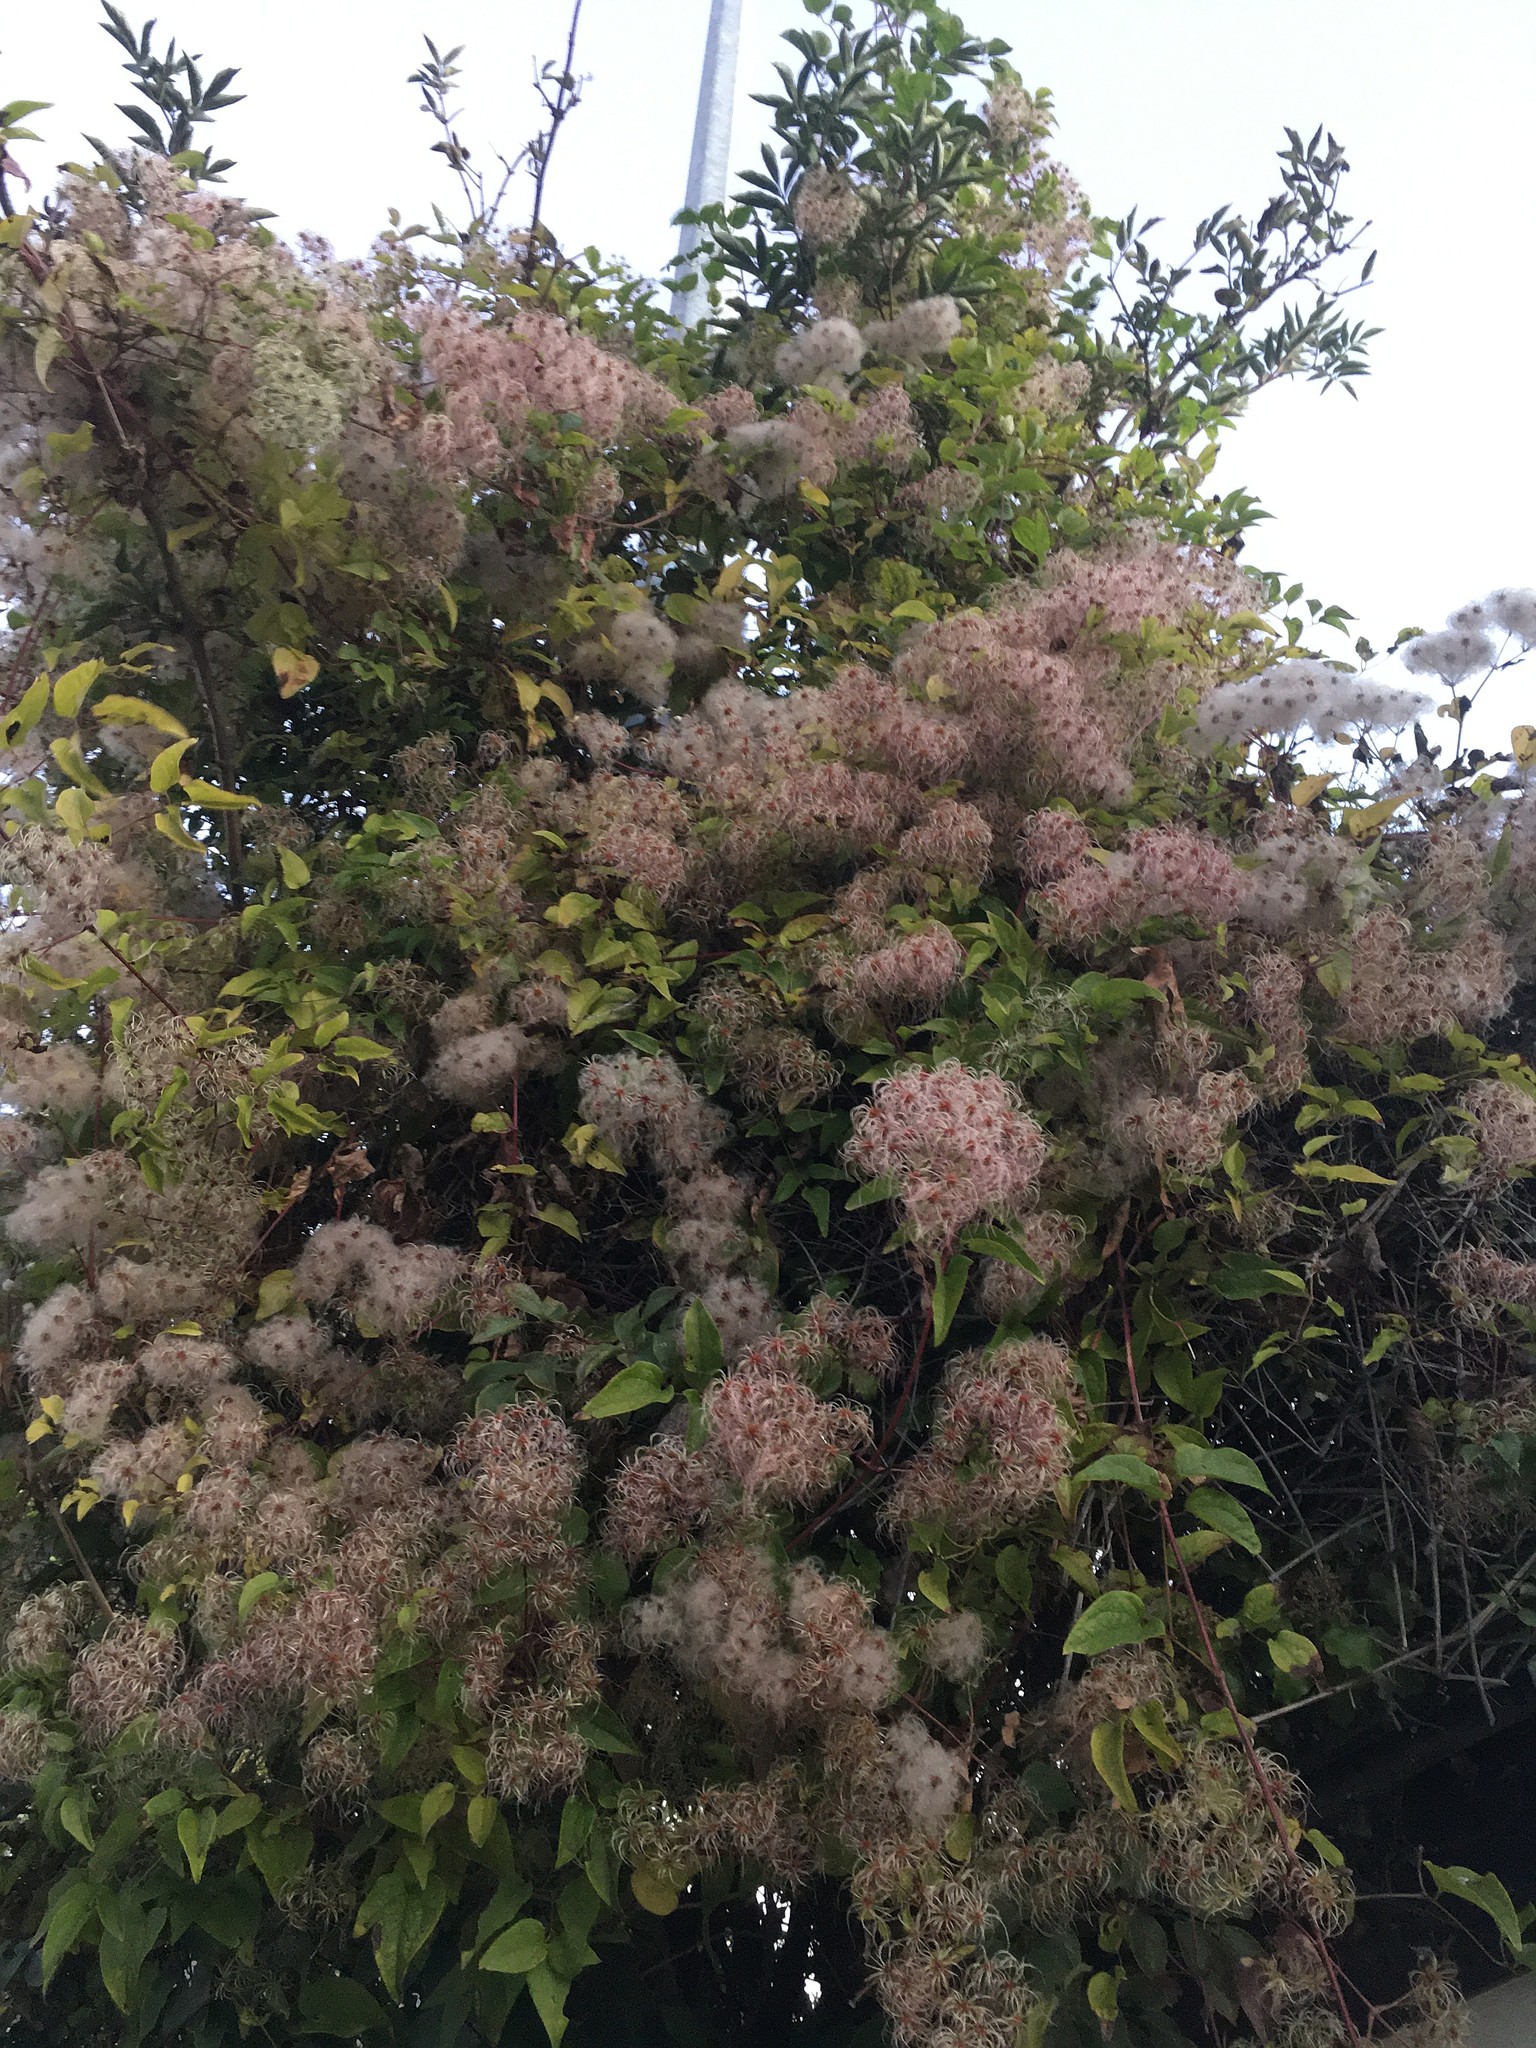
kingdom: Plantae
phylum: Tracheophyta
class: Magnoliopsida
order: Ranunculales
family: Ranunculaceae
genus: Clematis
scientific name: Clematis vitalba
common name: Evergreen clematis
